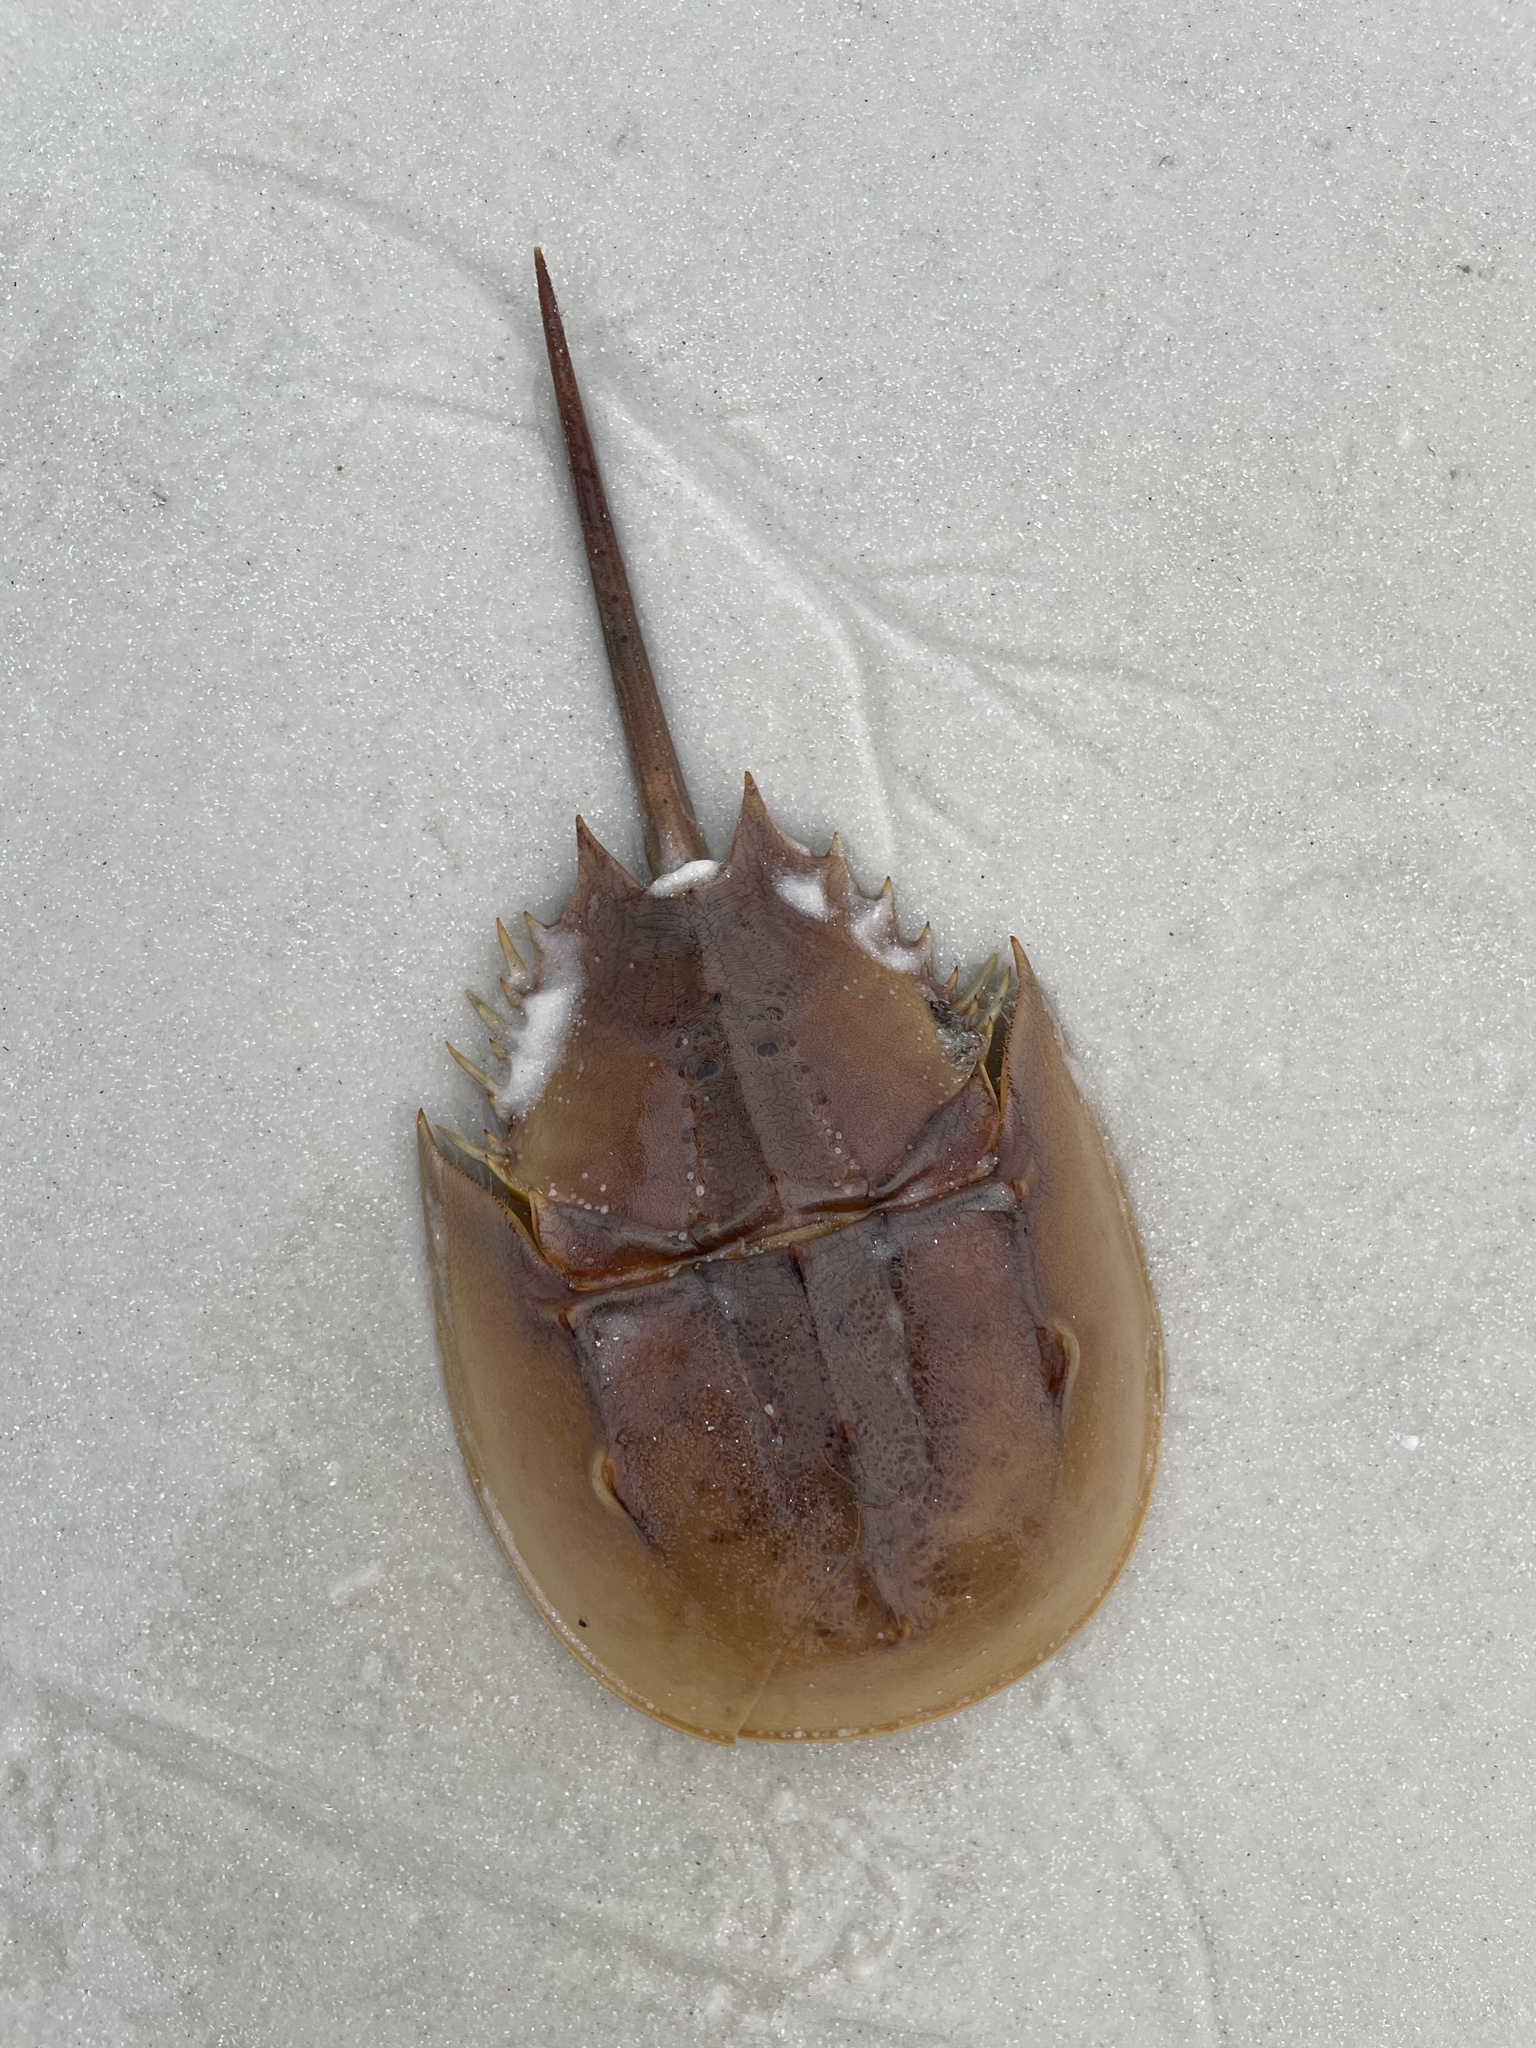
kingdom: Animalia
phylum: Arthropoda
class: Merostomata
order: Xiphosurida
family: Limulidae
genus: Limulus
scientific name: Limulus polyphemus
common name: Horseshoe crab
